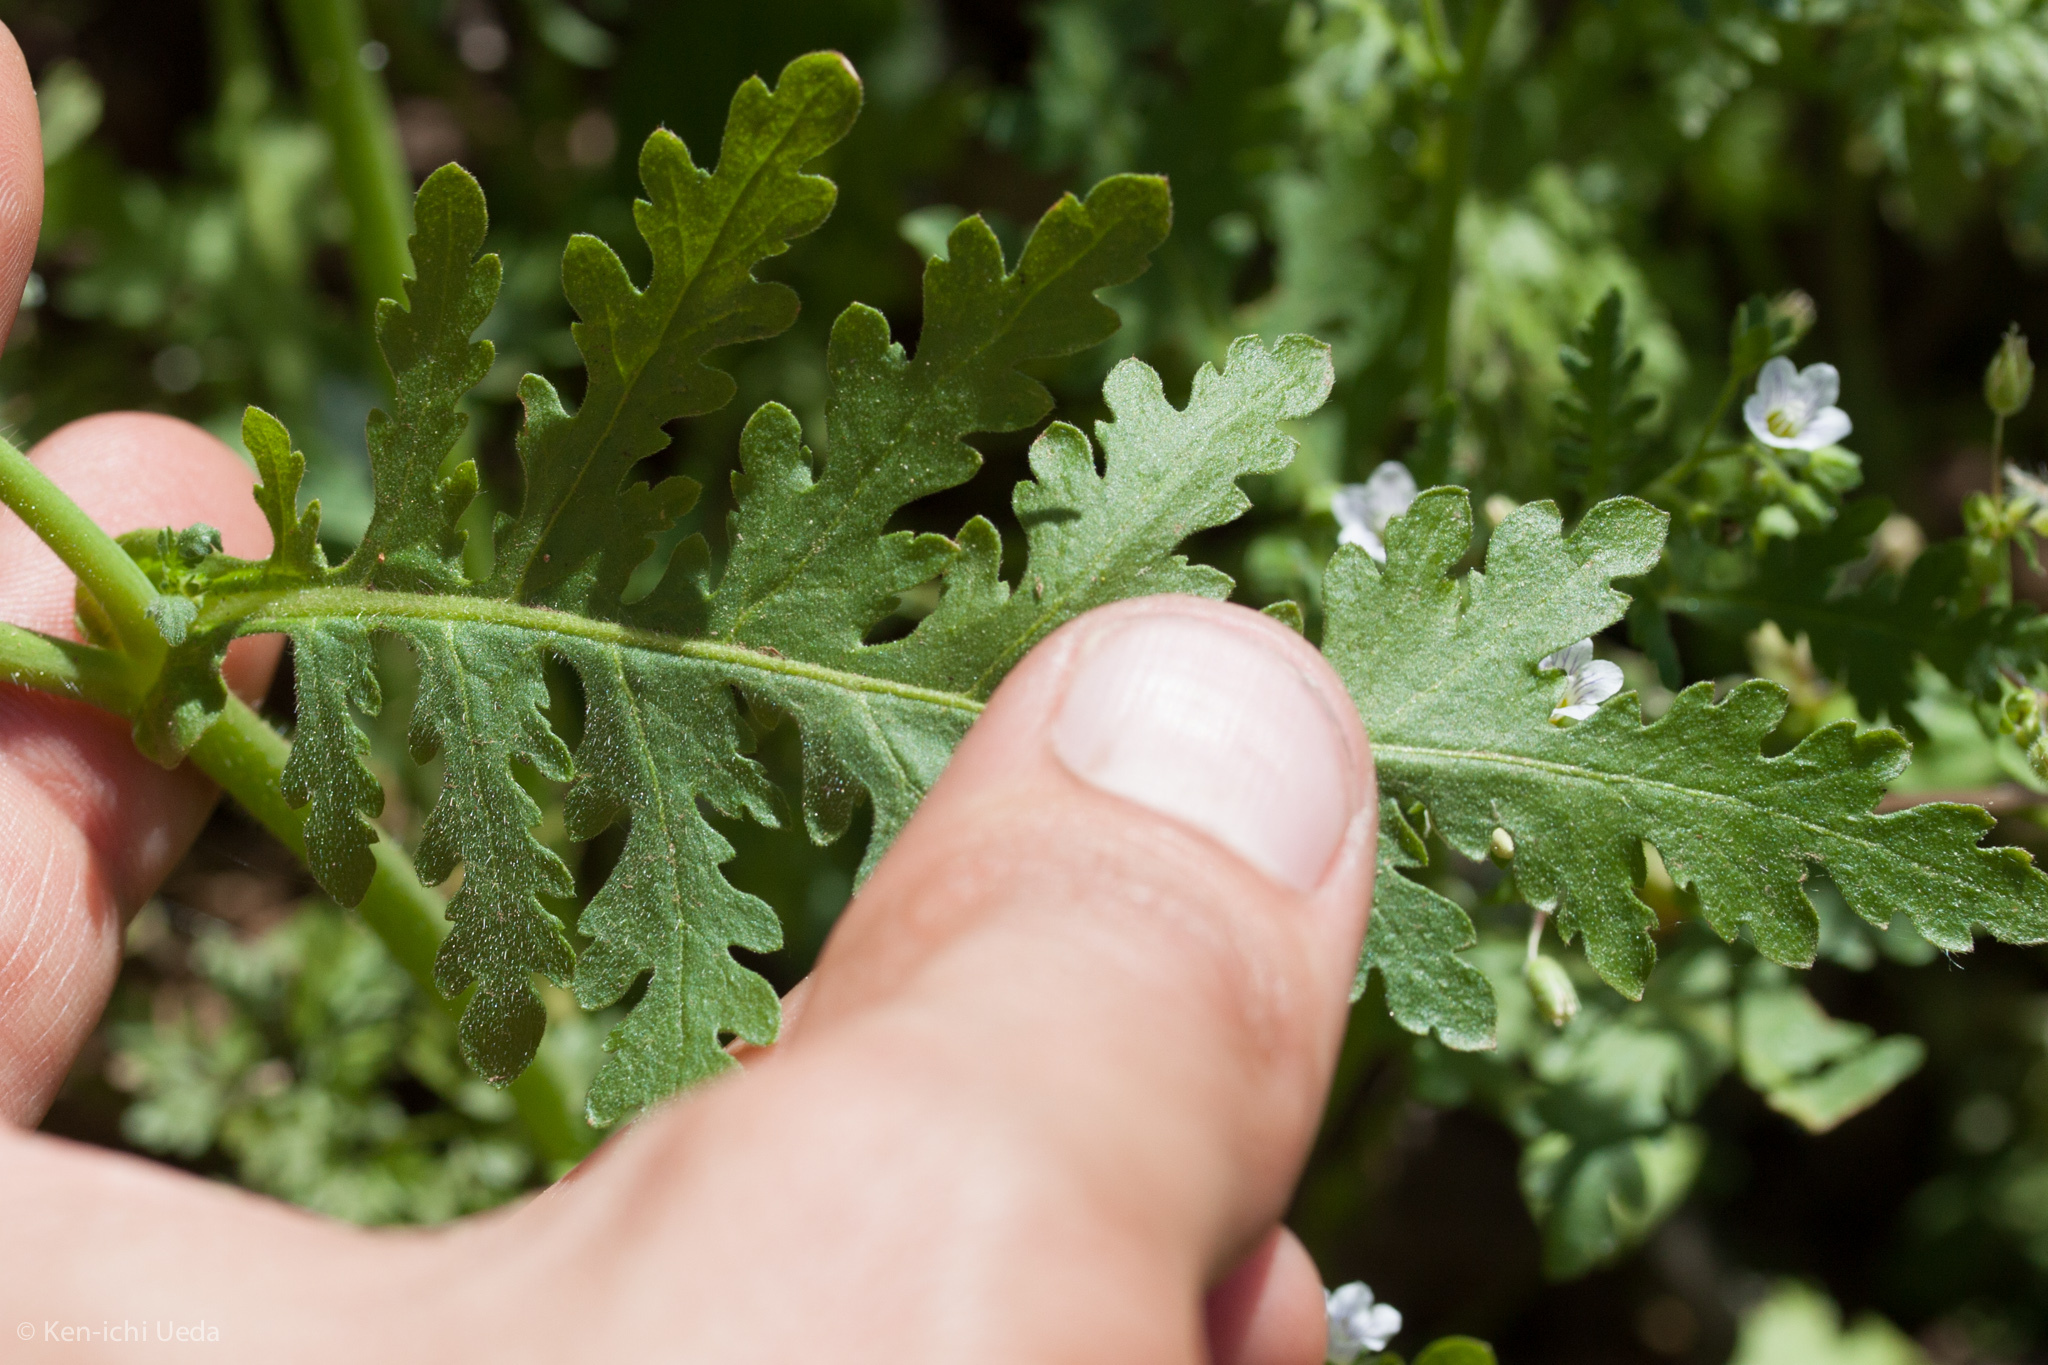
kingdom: Plantae
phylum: Tracheophyta
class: Magnoliopsida
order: Boraginales
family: Hydrophyllaceae
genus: Eucrypta
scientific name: Eucrypta chrysanthemifolia
